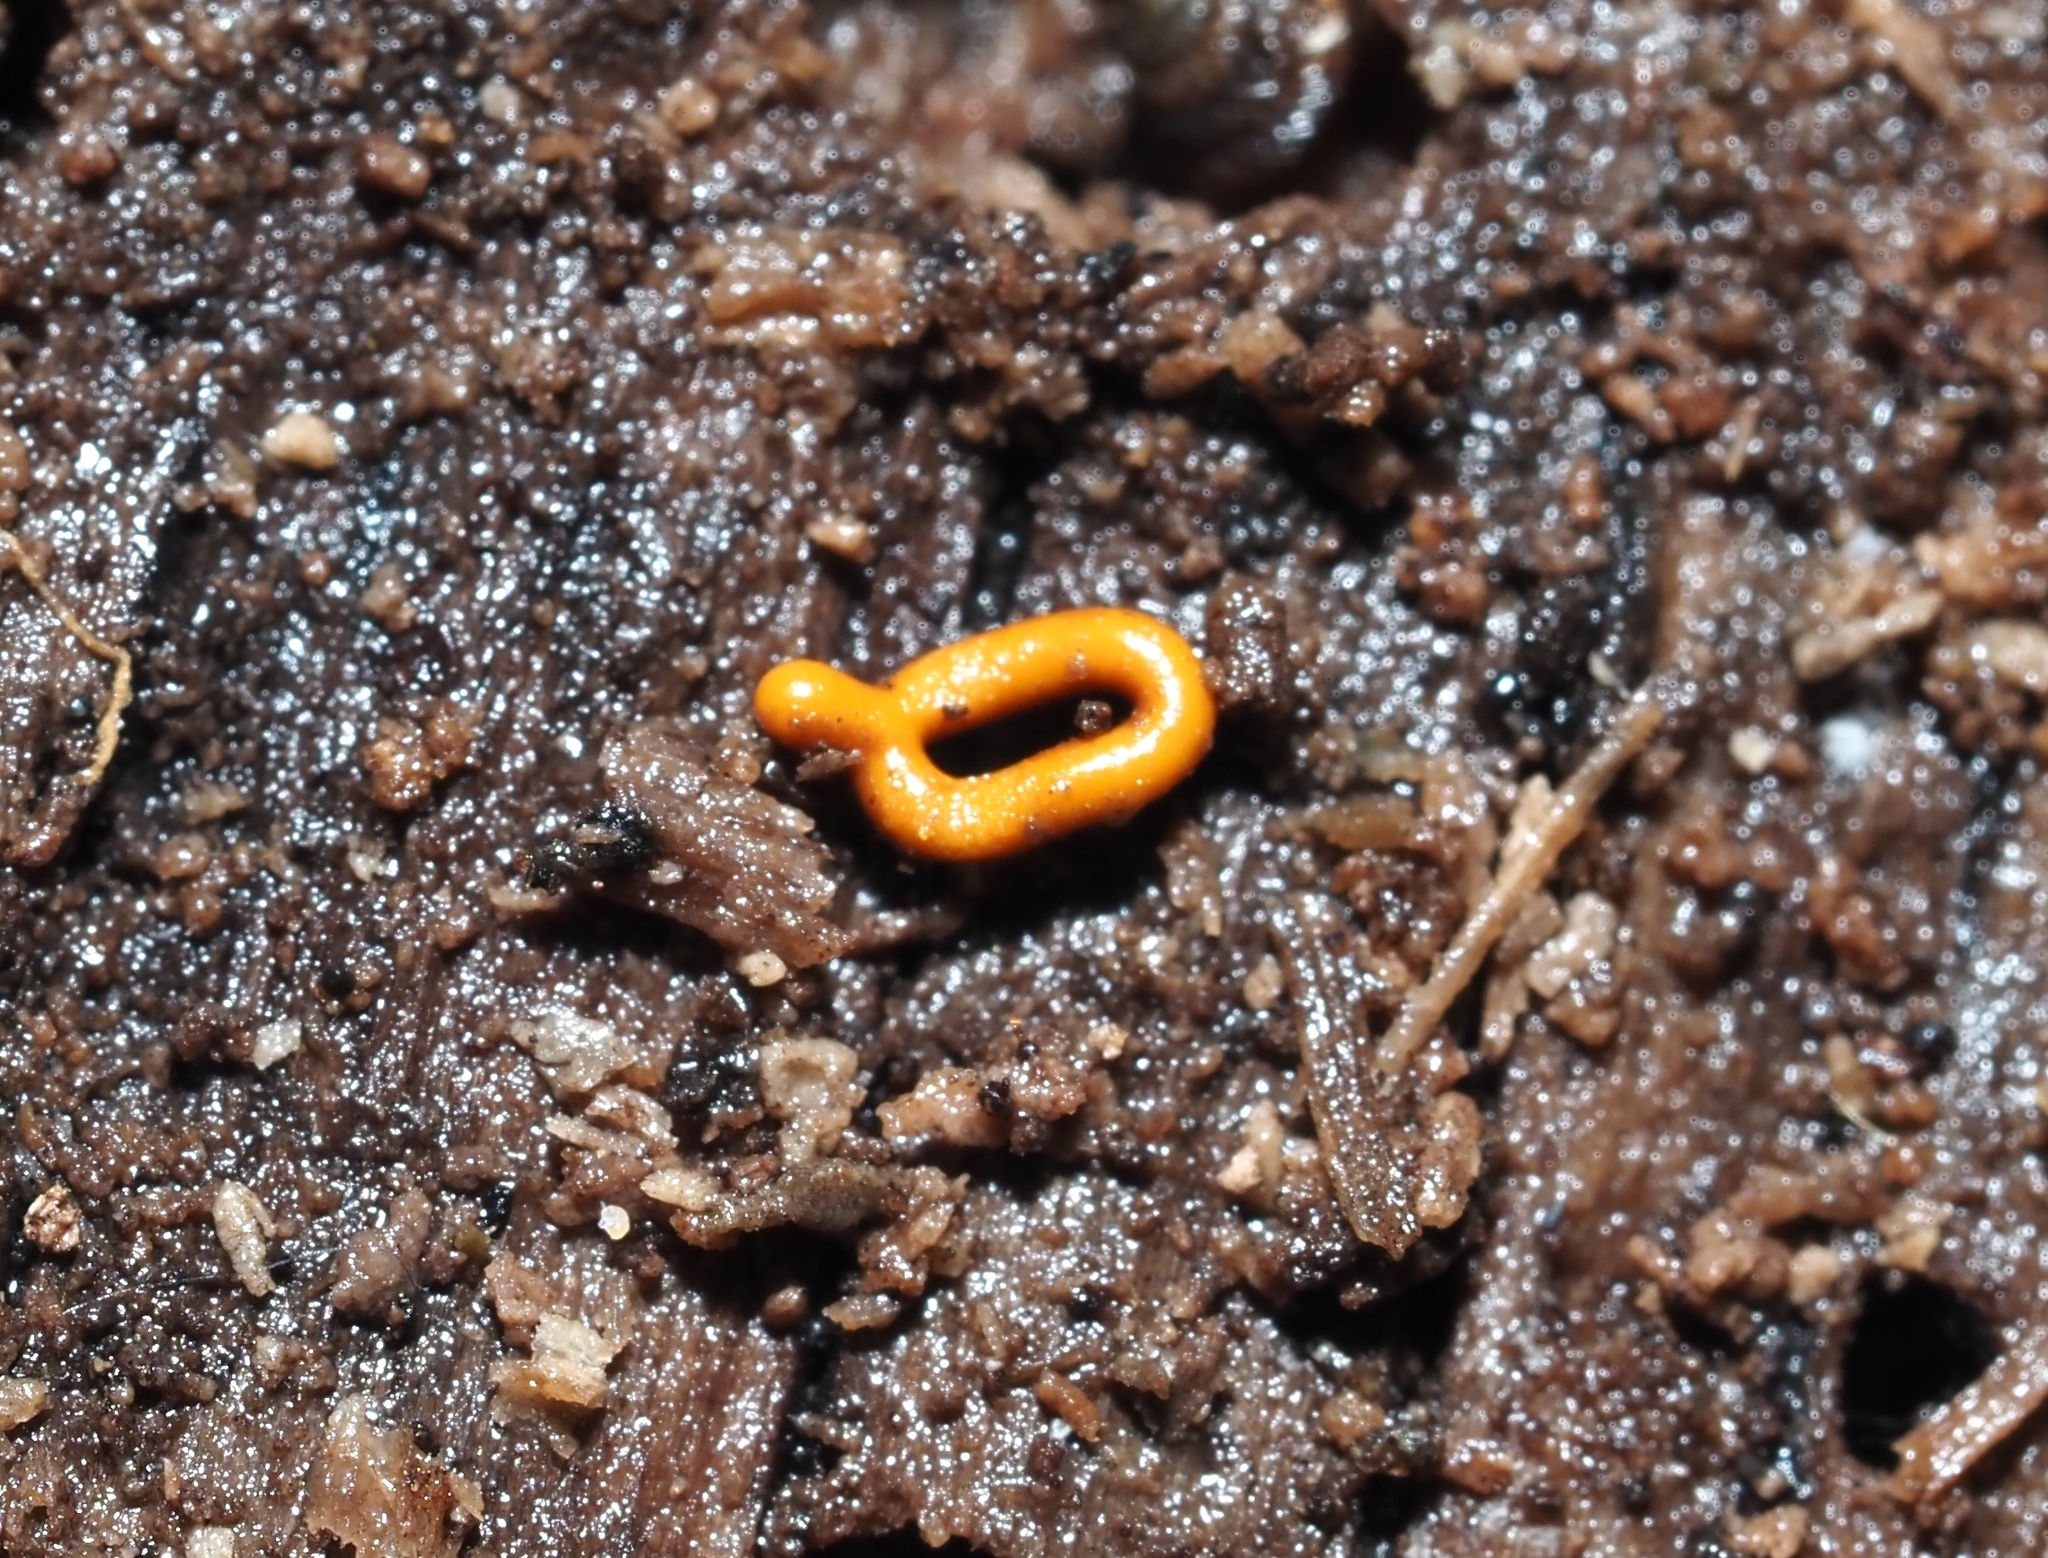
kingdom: Protozoa
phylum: Mycetozoa
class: Myxomycetes
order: Trichiales
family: Arcyriaceae
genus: Hemitrichia
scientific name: Hemitrichia serpula
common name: Pretzel slime mold
